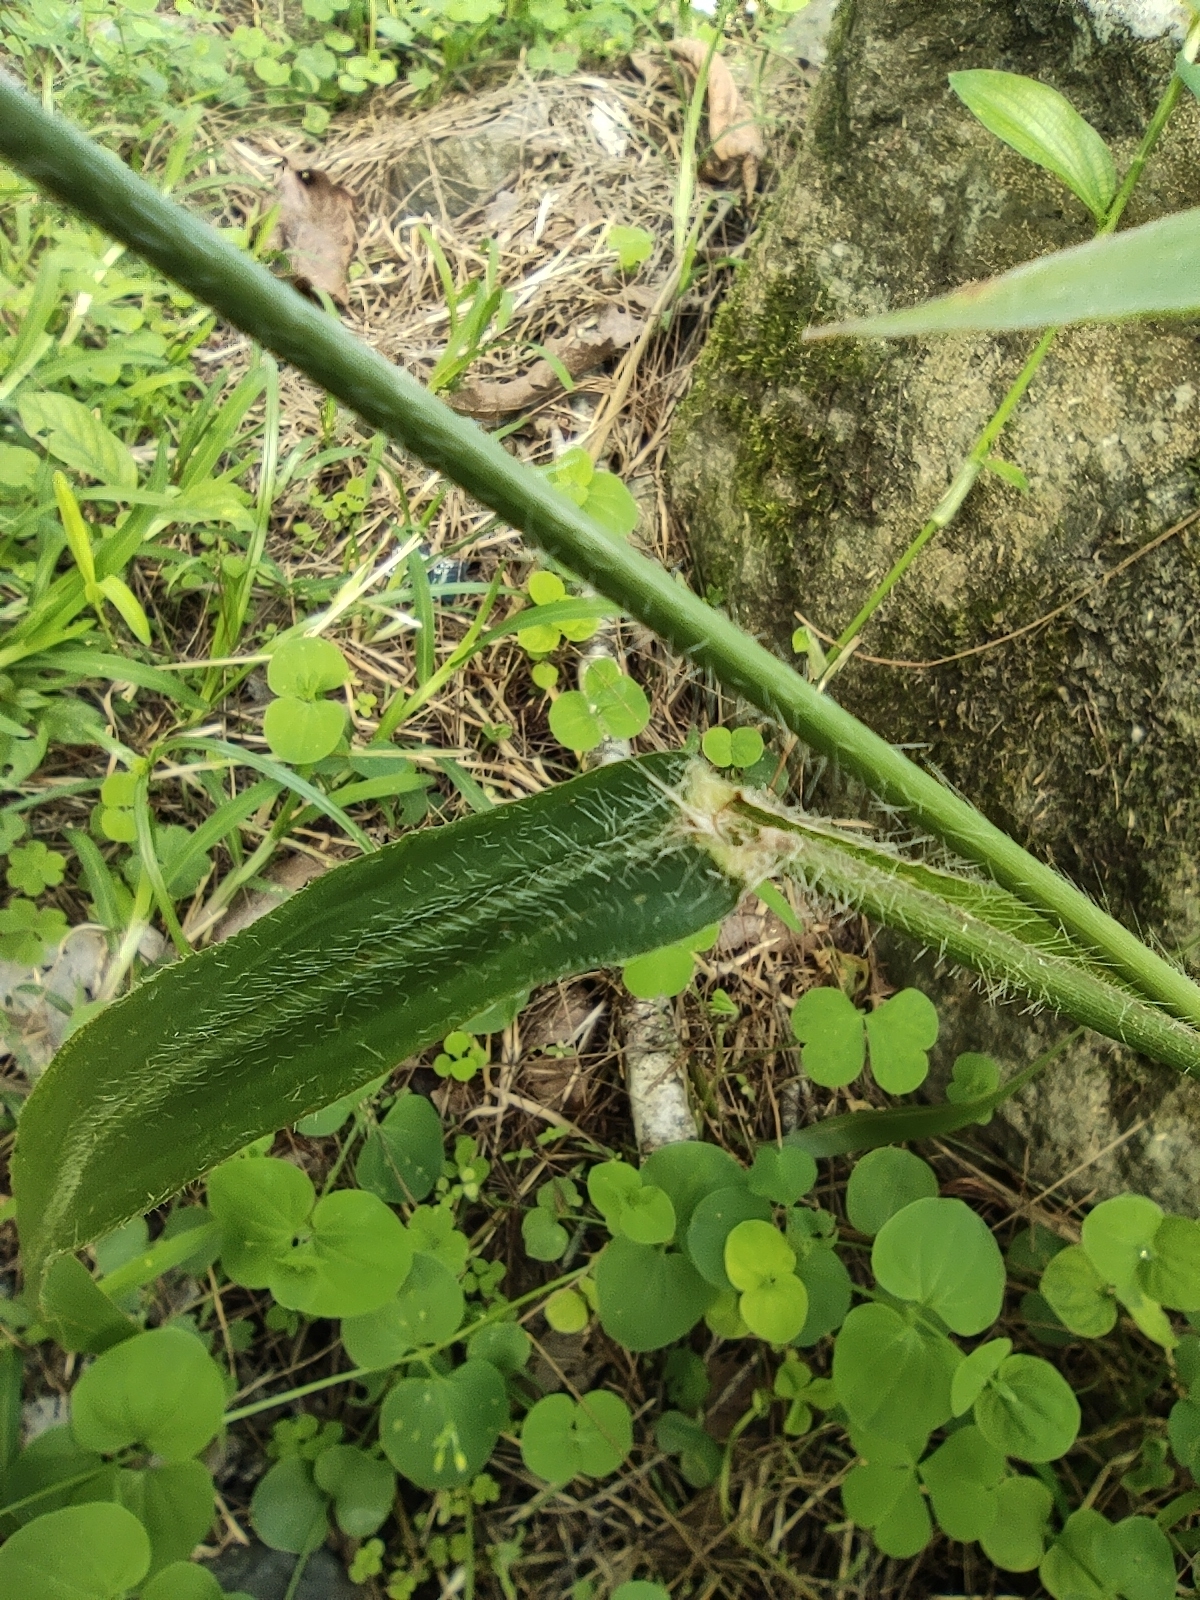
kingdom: Plantae
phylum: Tracheophyta
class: Liliopsida
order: Poales
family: Poaceae
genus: Paspalum
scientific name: Paspalum paniculatum
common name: Arrocillo
